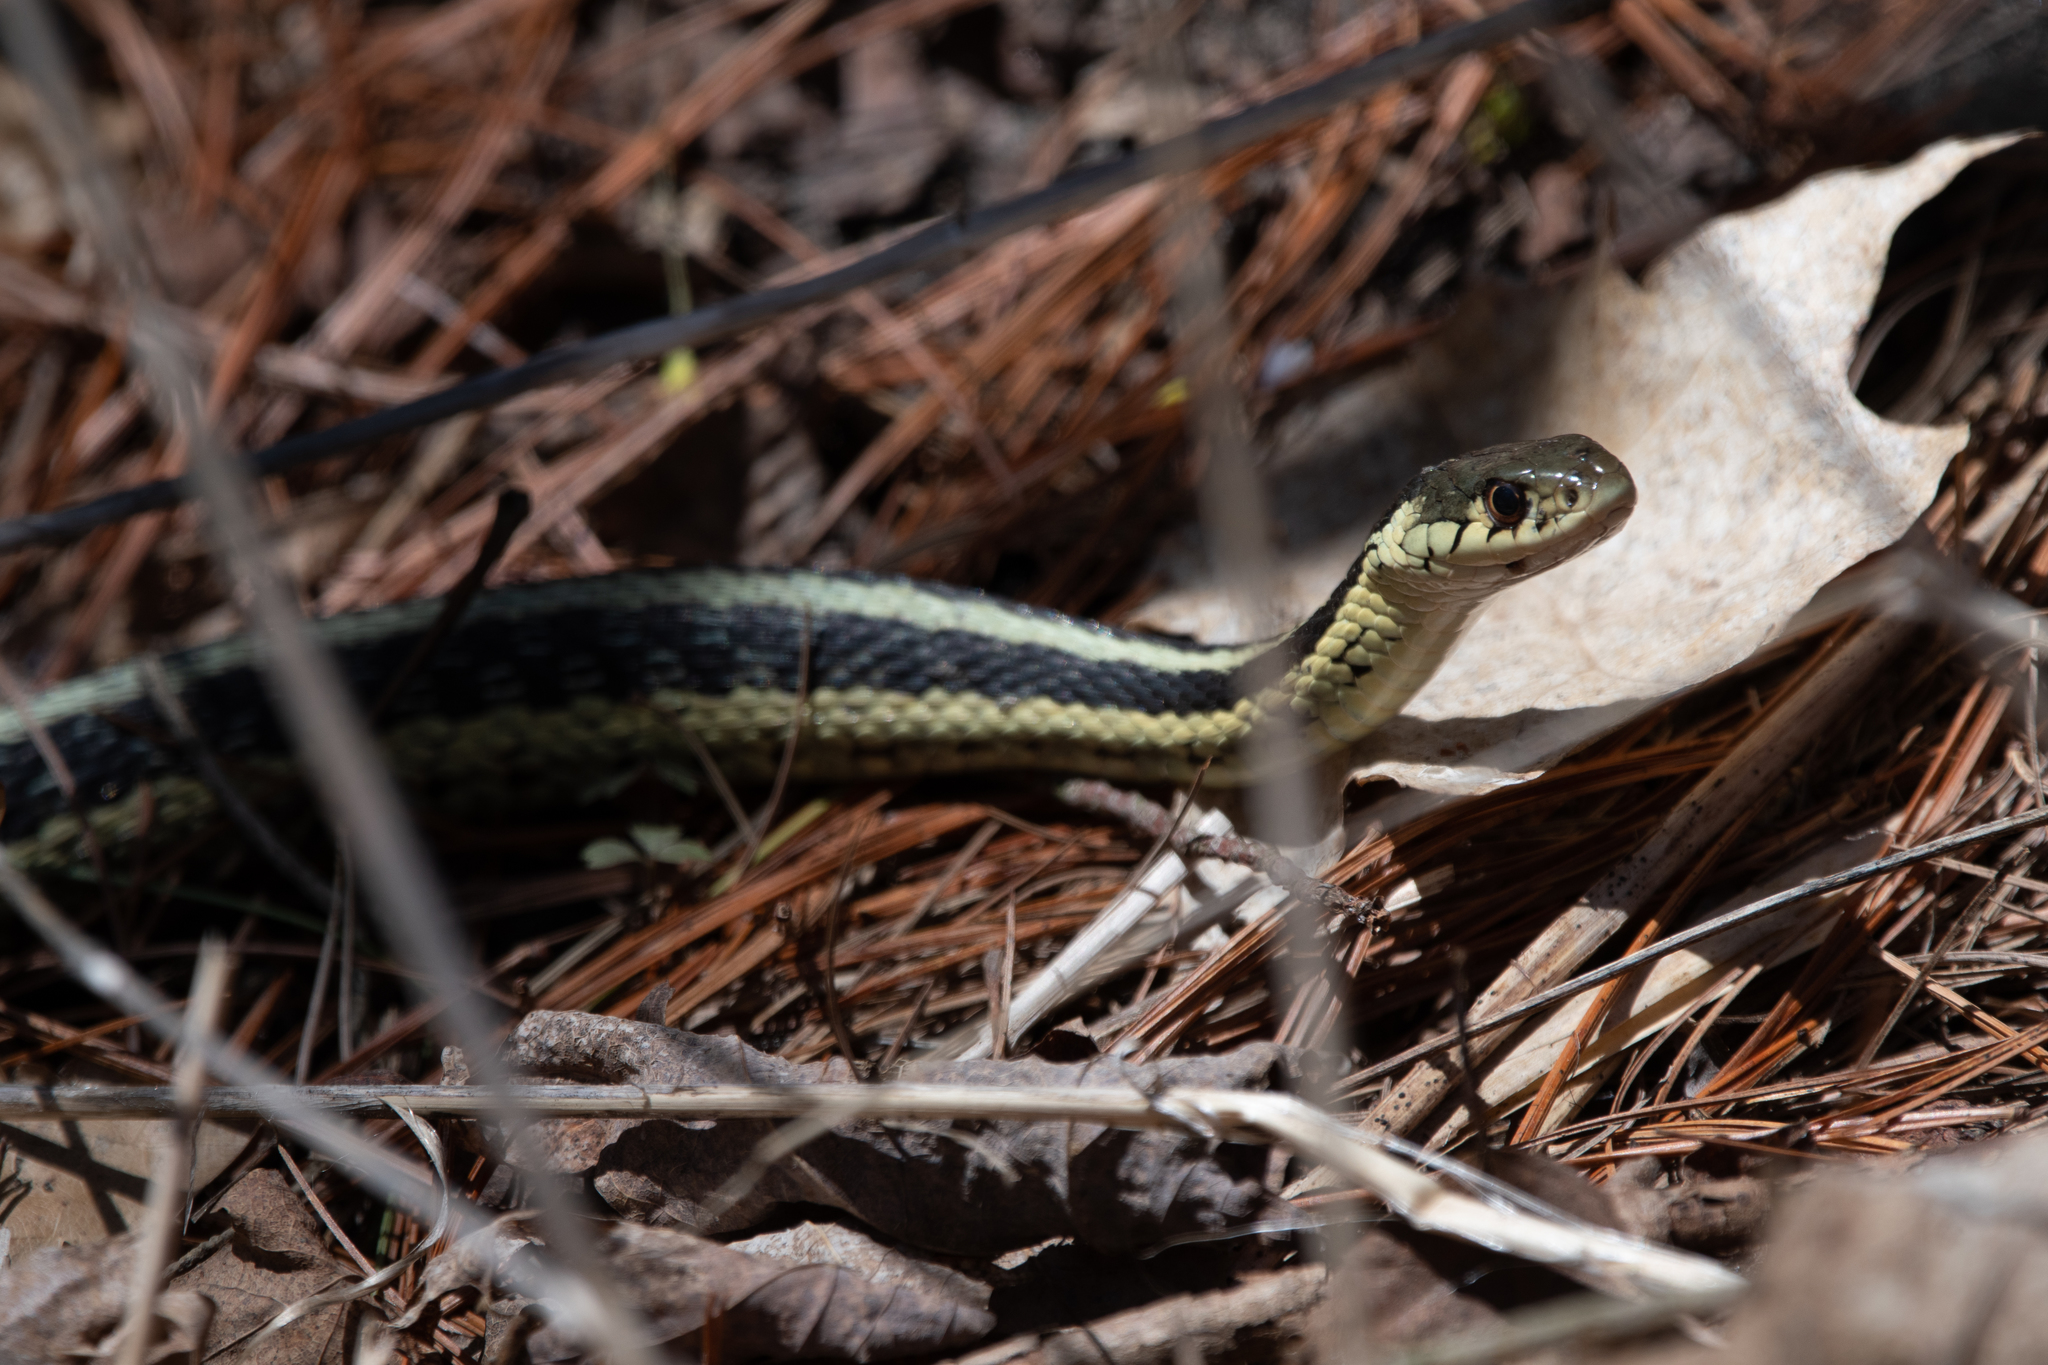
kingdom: Animalia
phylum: Chordata
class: Squamata
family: Colubridae
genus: Thamnophis
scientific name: Thamnophis sirtalis
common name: Common garter snake
